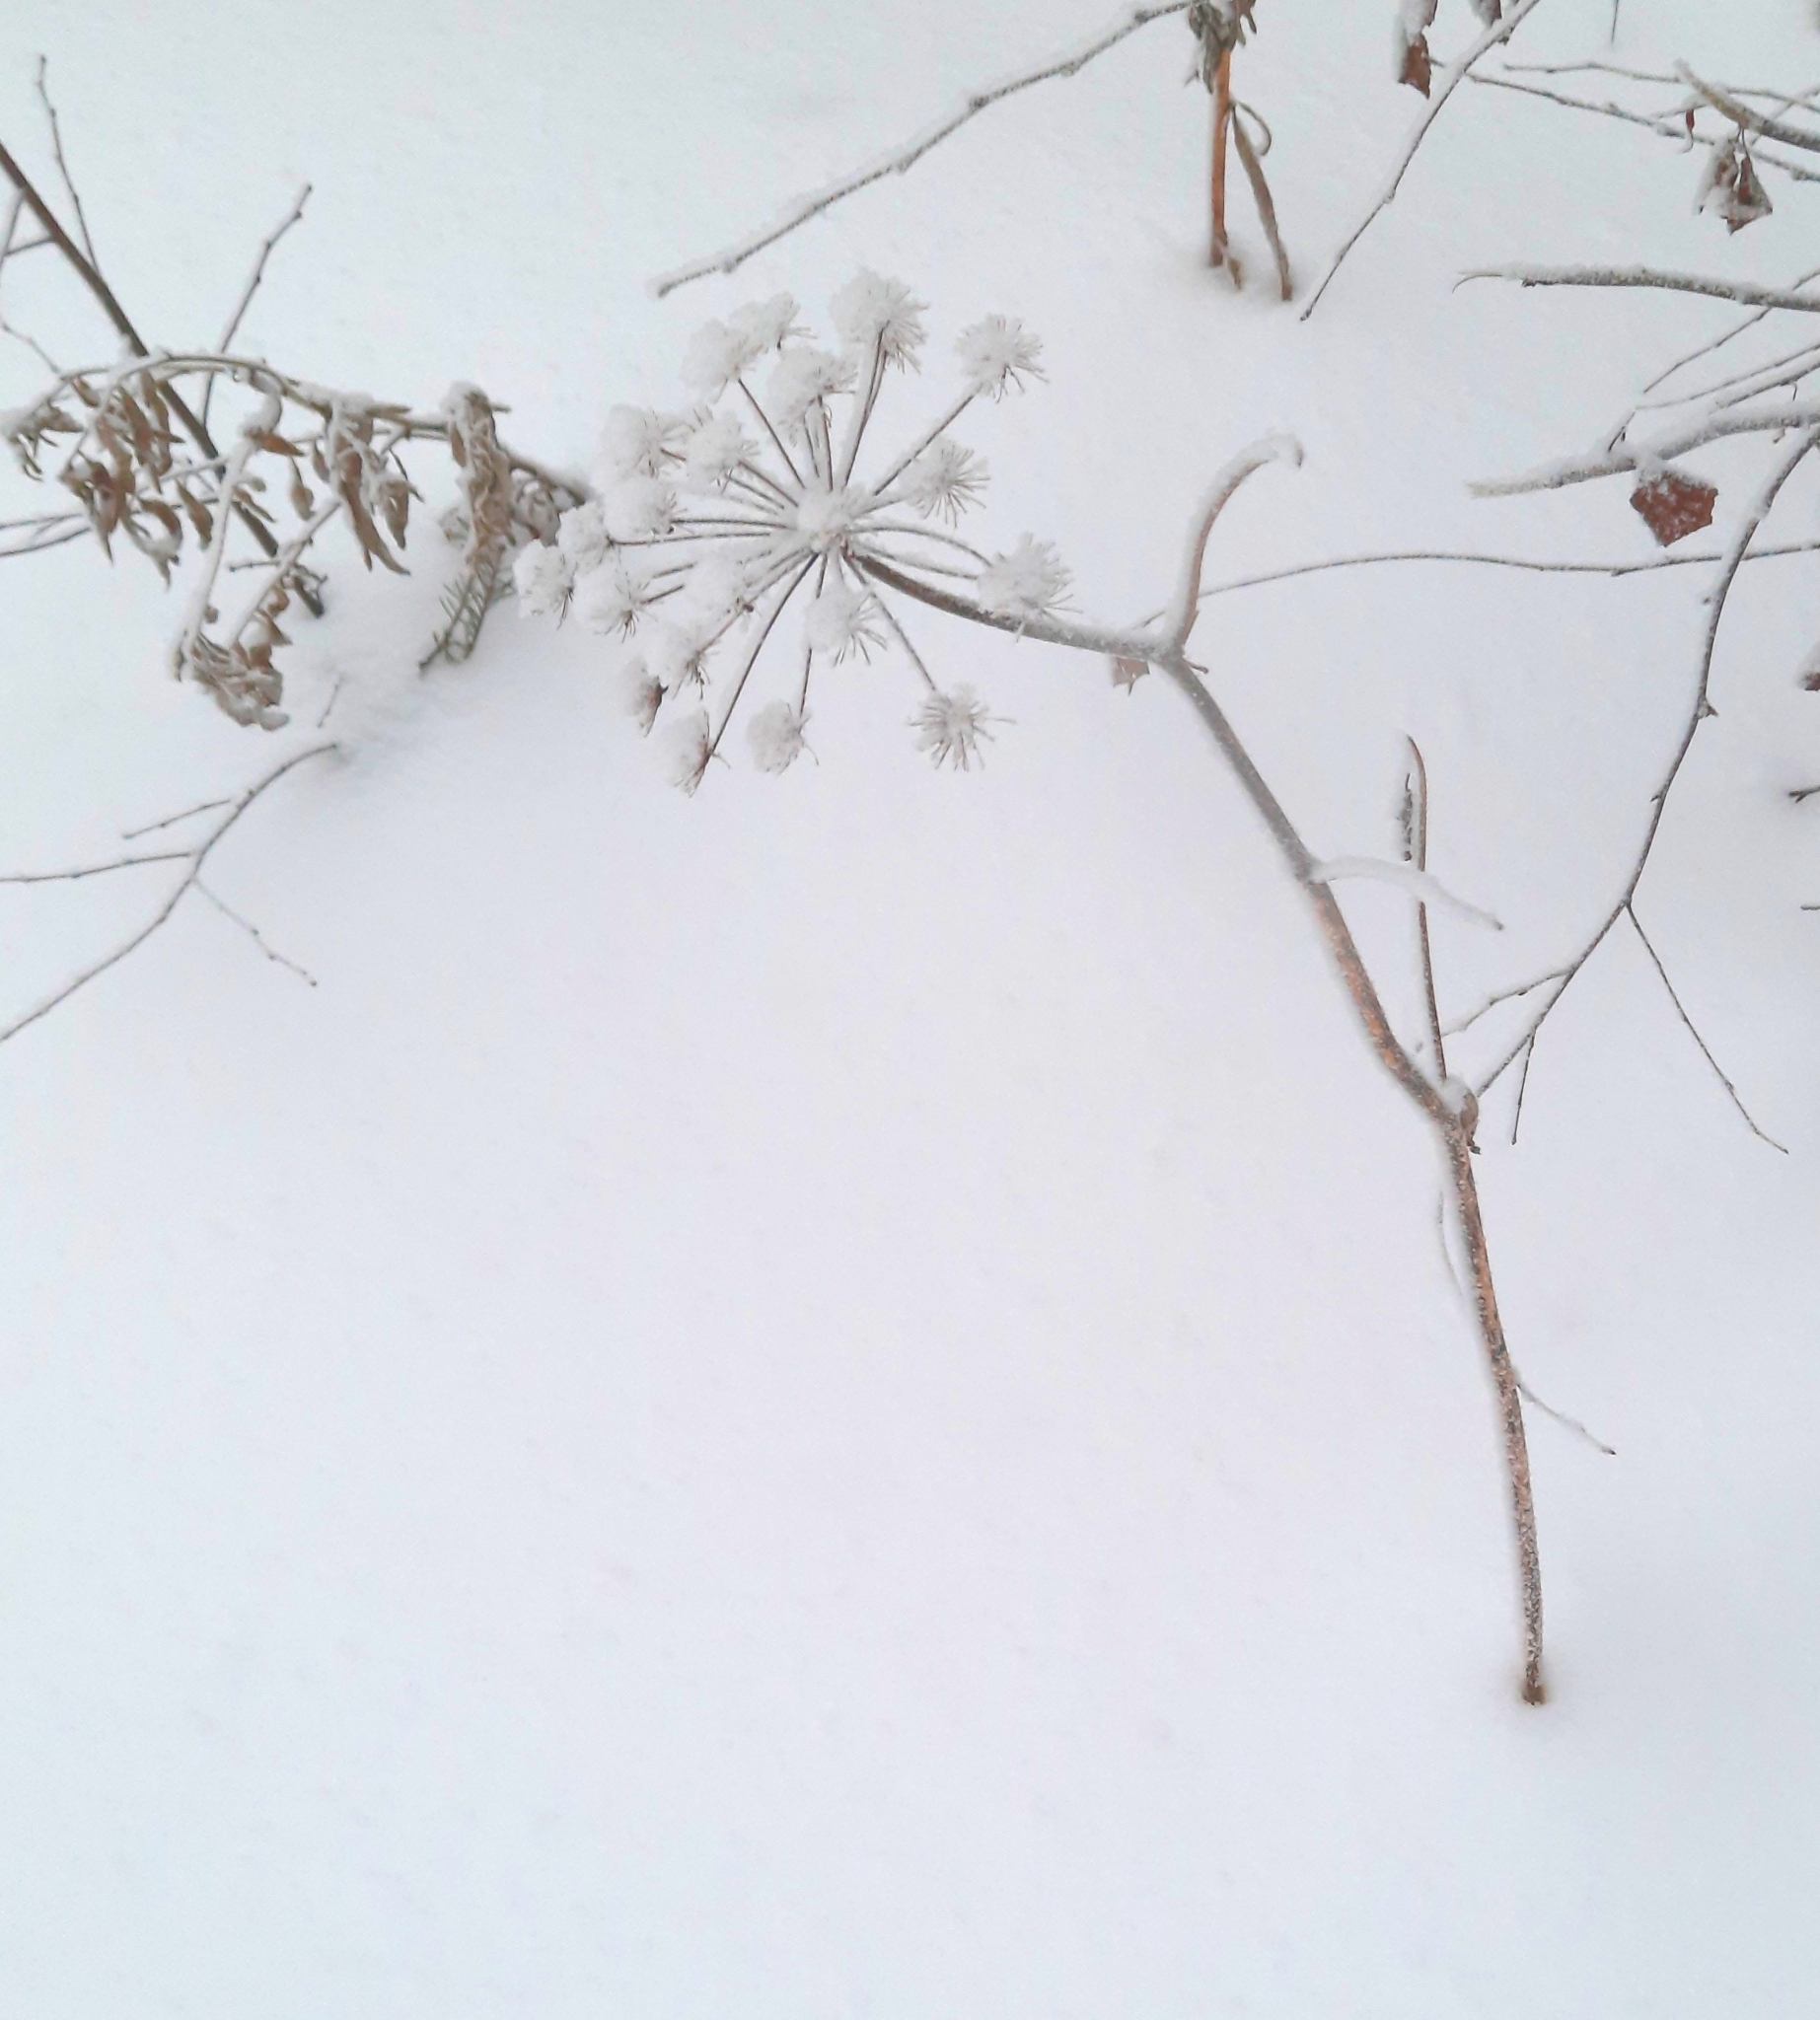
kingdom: Plantae
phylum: Tracheophyta
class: Magnoliopsida
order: Apiales
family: Apiaceae
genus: Angelica
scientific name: Angelica sylvestris
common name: Wild angelica
